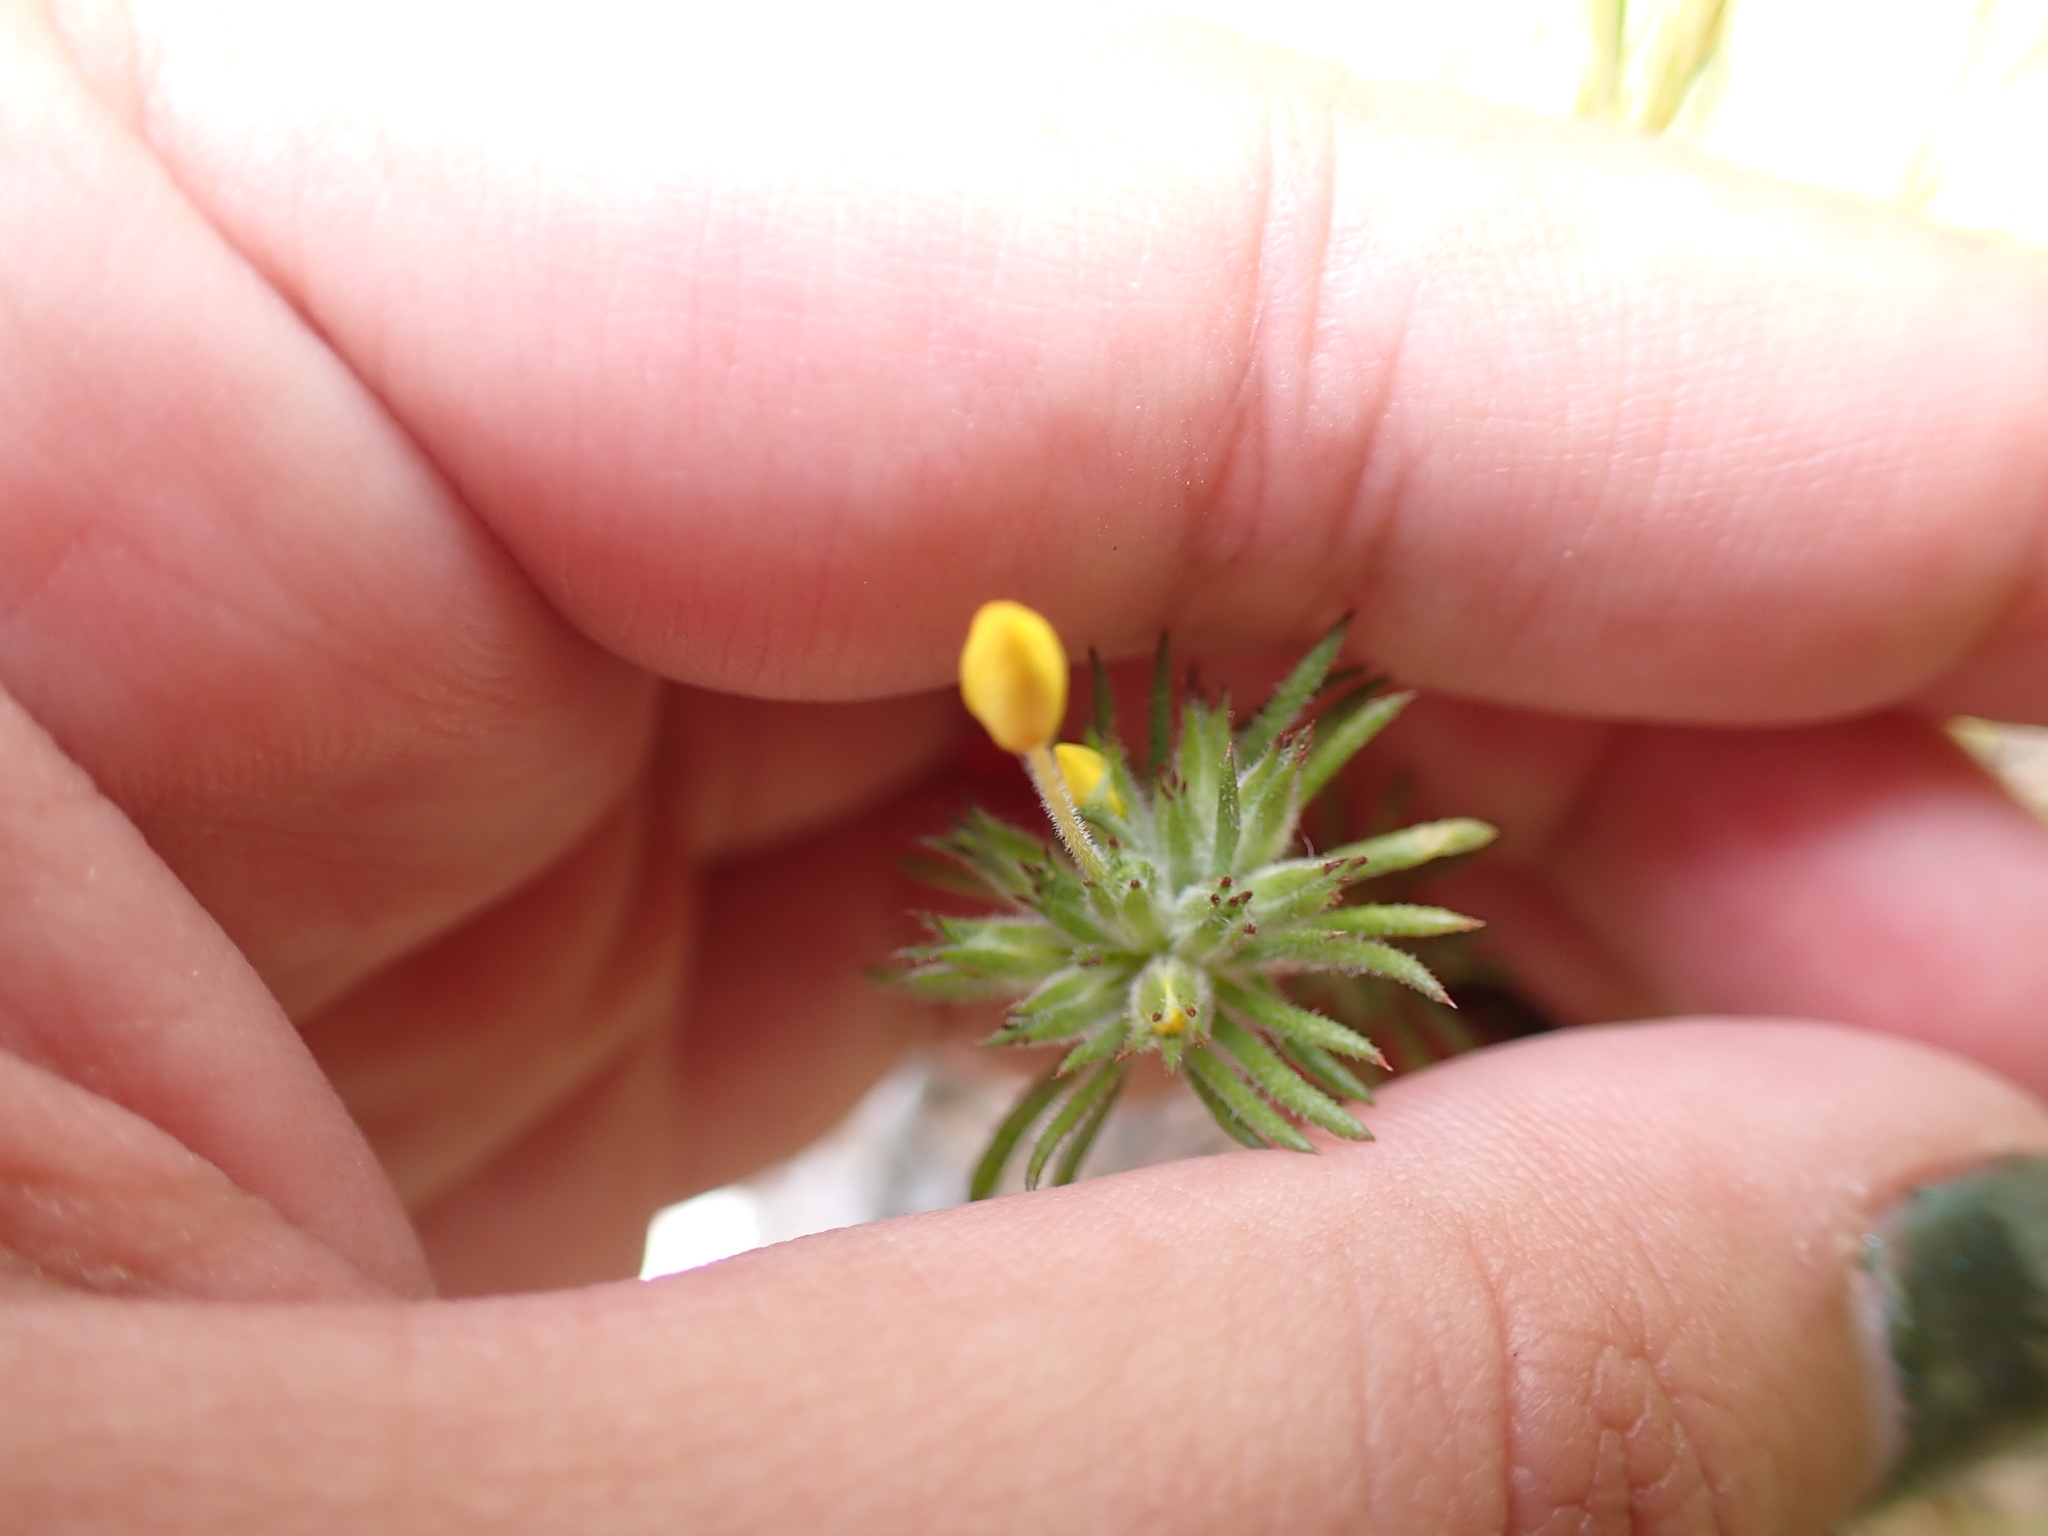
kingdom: Plantae
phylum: Tracheophyta
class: Magnoliopsida
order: Ericales
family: Polemoniaceae
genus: Leptosiphon
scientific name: Leptosiphon parviflorus
